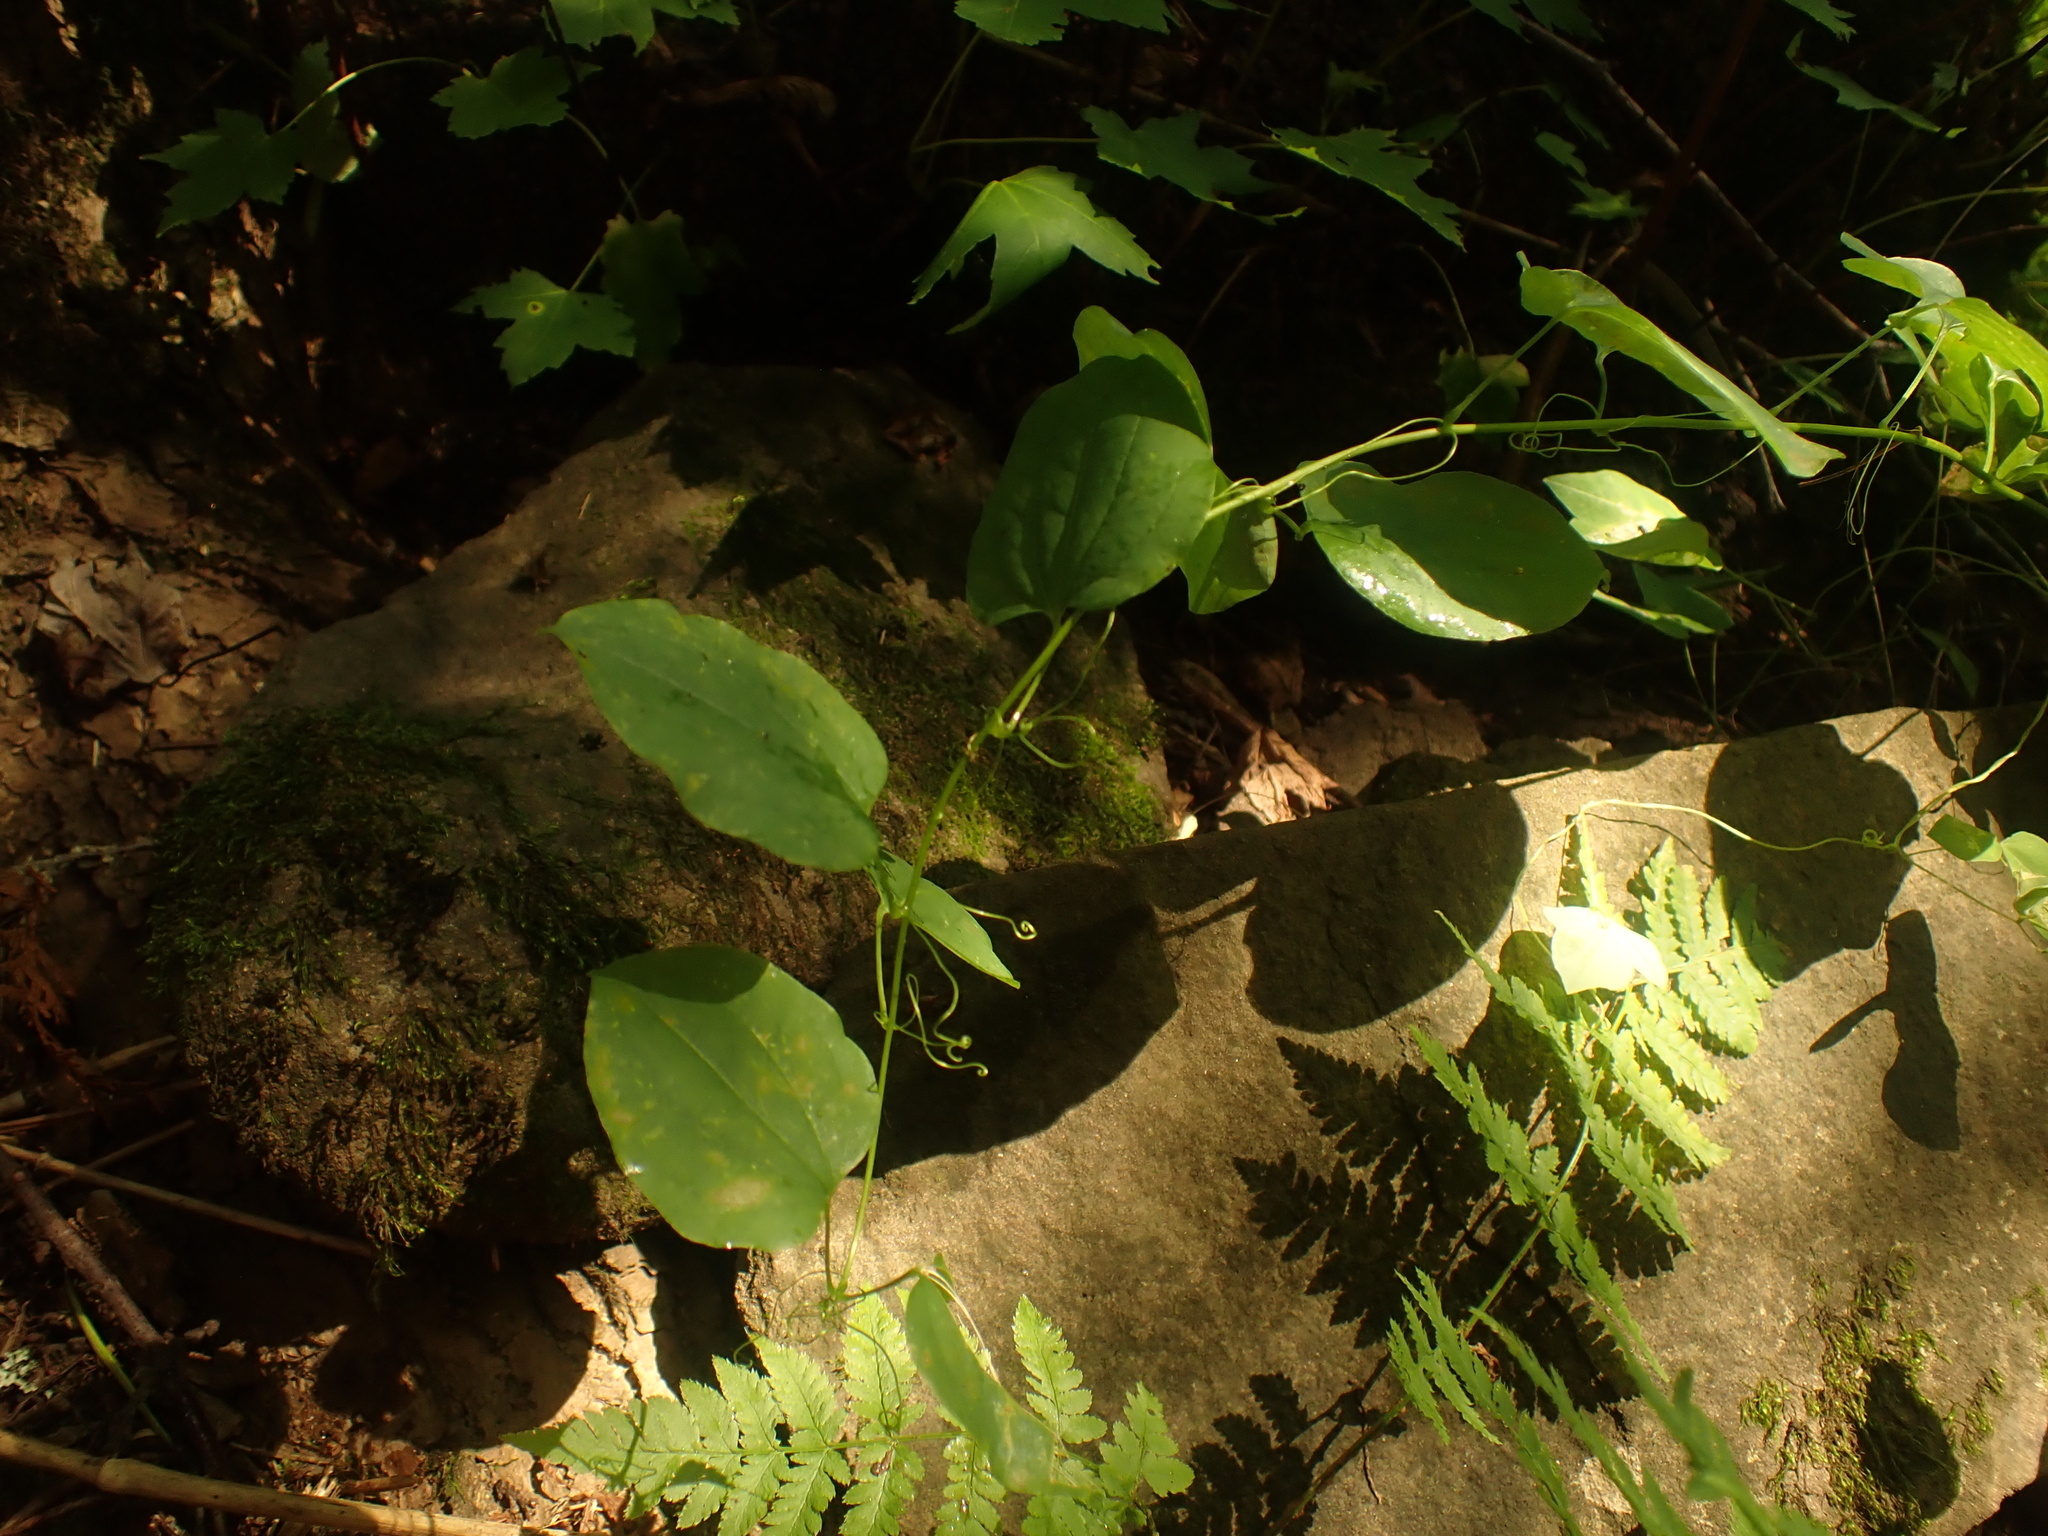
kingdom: Plantae
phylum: Tracheophyta
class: Liliopsida
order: Liliales
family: Smilacaceae
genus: Smilax
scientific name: Smilax herbacea
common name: Jacob's-ladder
